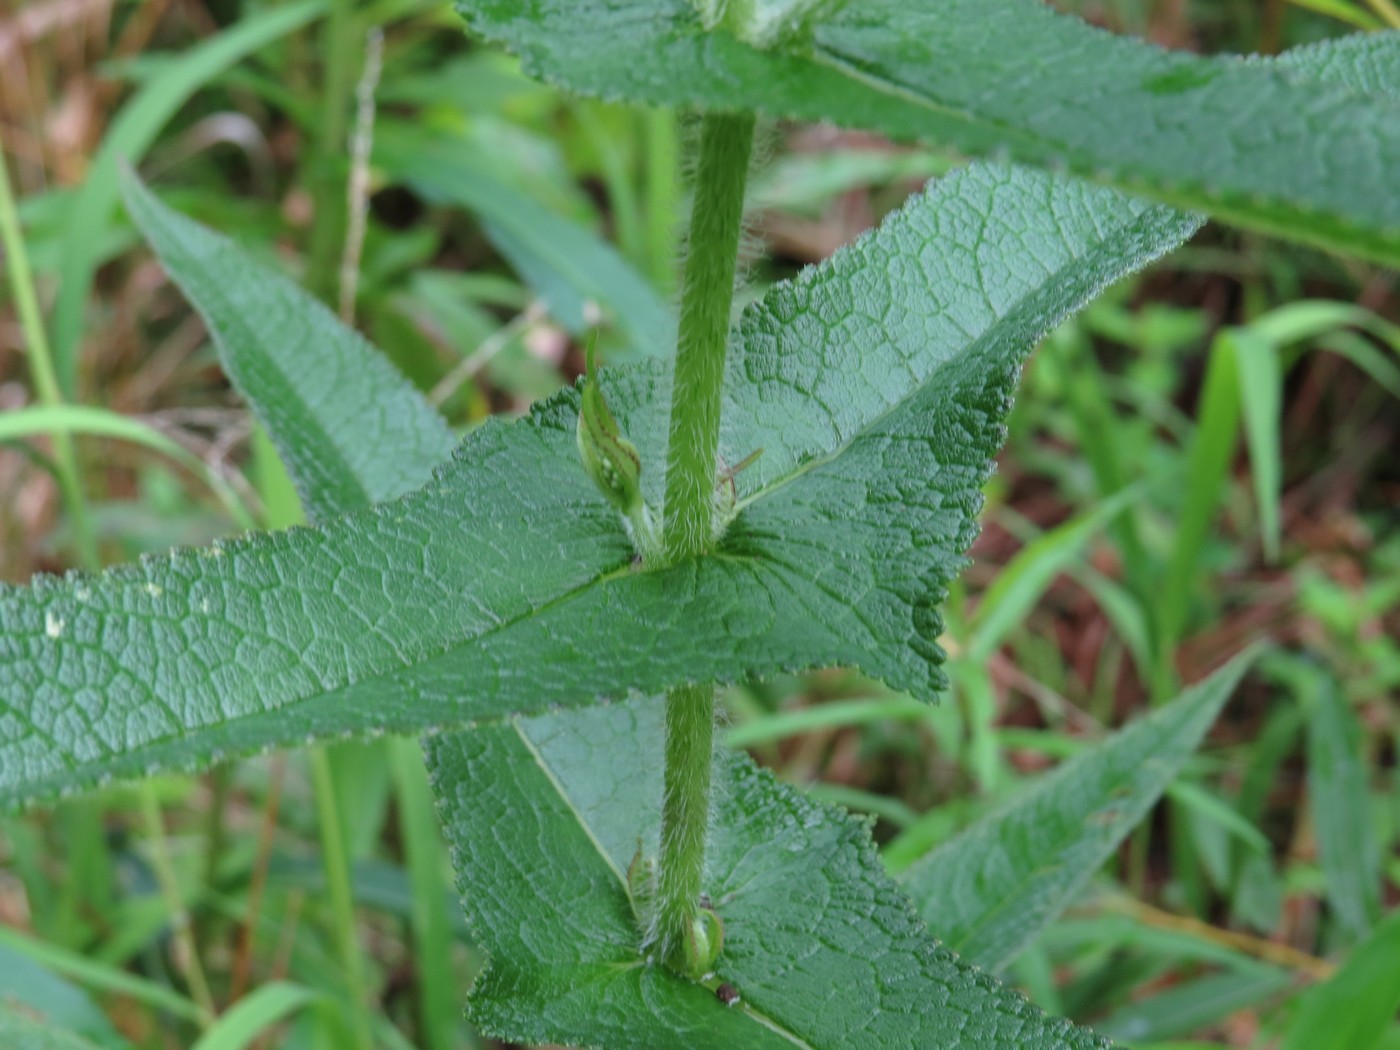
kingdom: Plantae
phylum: Tracheophyta
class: Magnoliopsida
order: Asterales
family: Asteraceae
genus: Eupatorium
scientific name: Eupatorium perfoliatum
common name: Boneset
